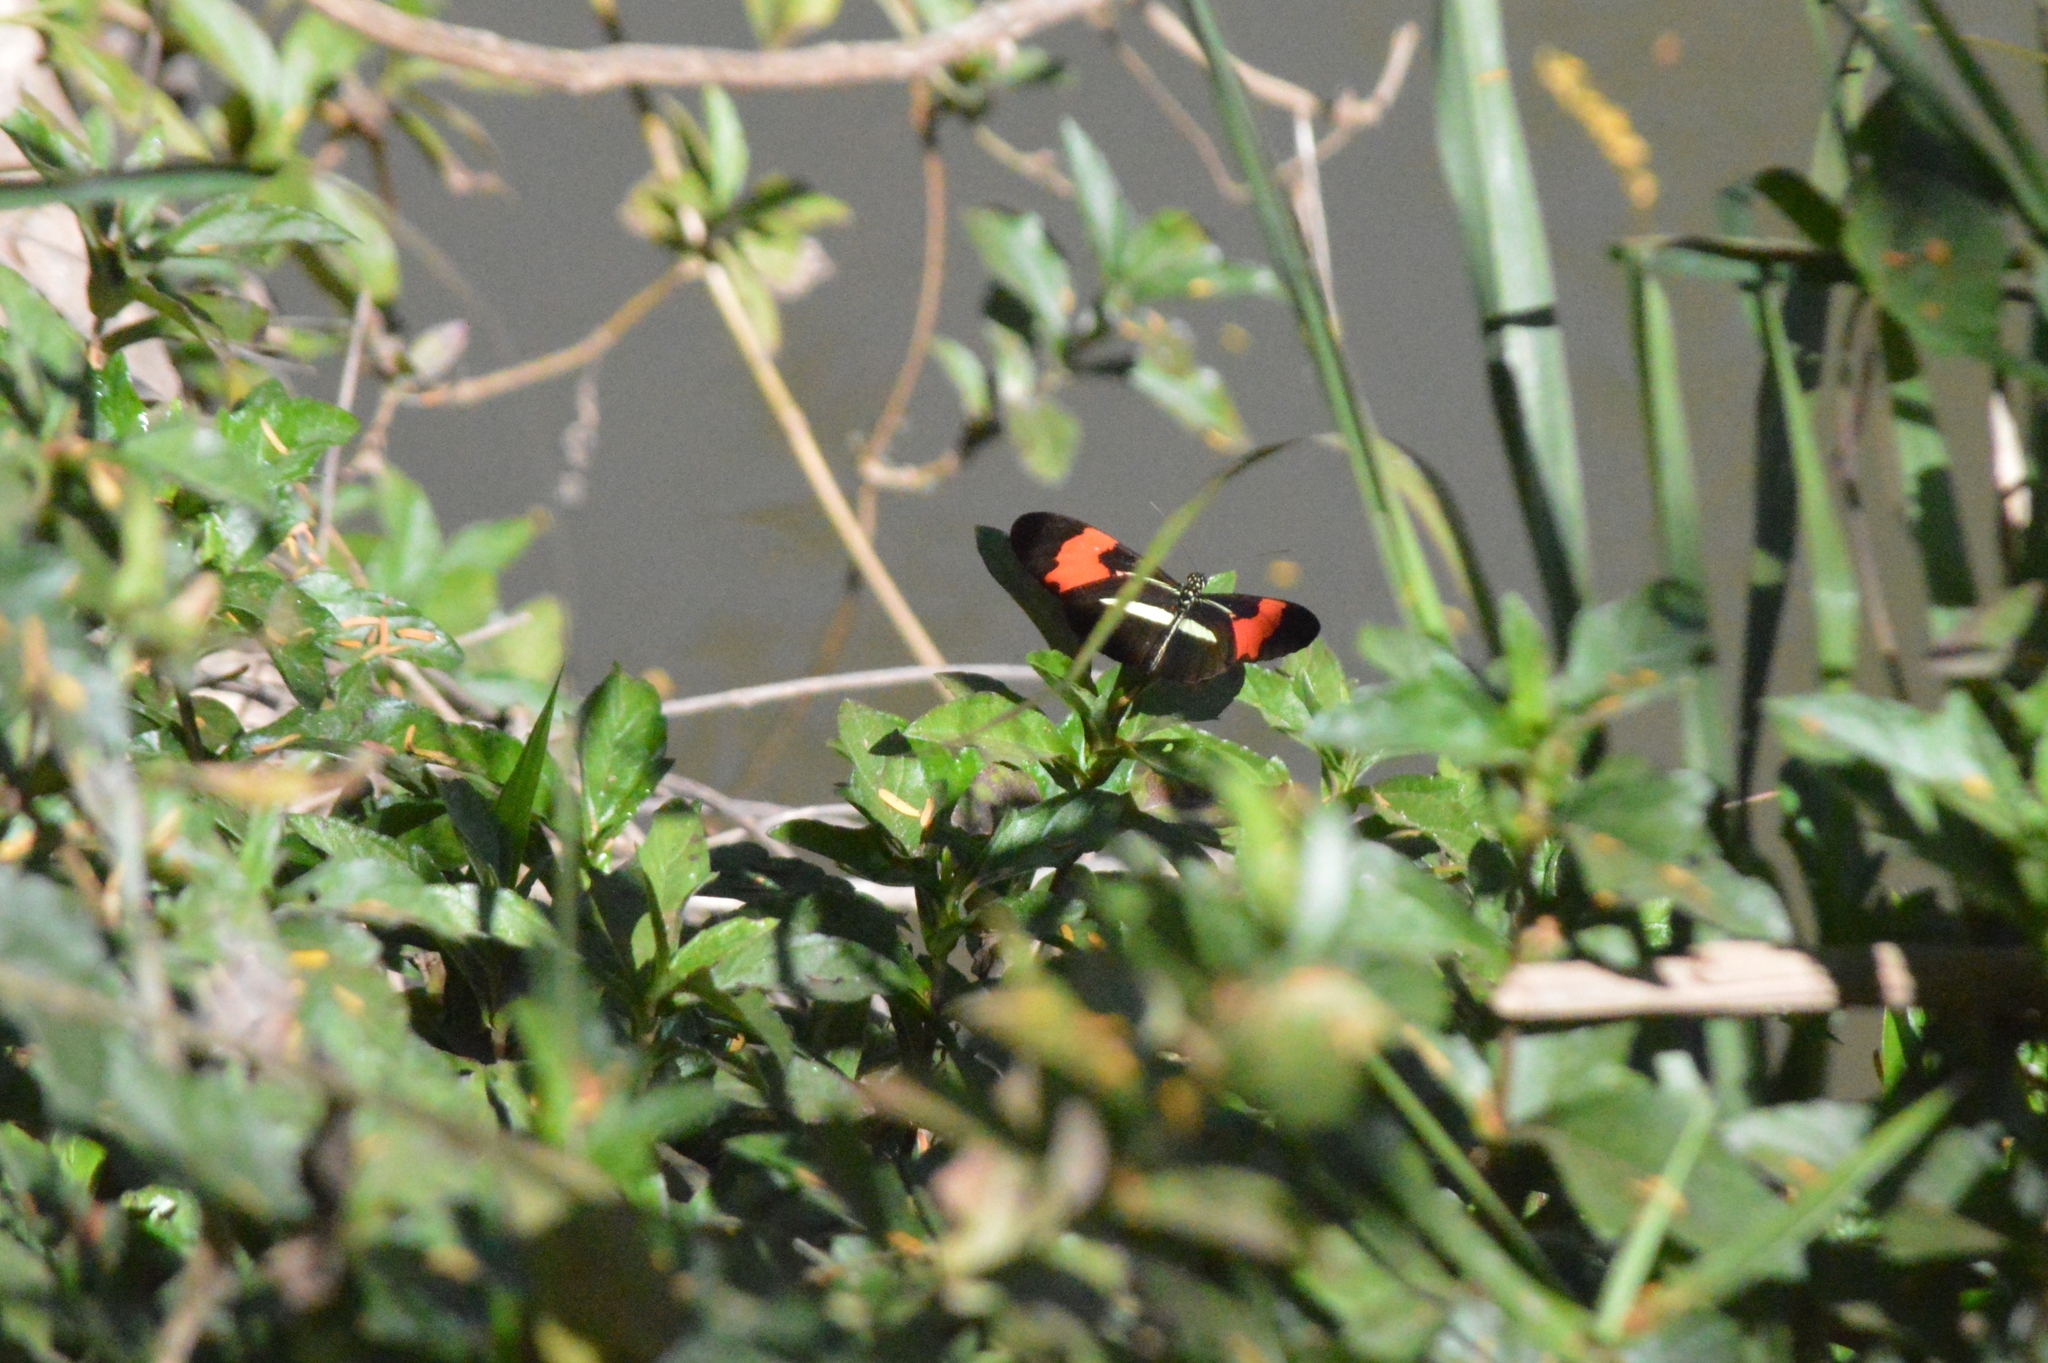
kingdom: Animalia
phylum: Arthropoda
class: Insecta
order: Lepidoptera
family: Nymphalidae
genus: Heliconius
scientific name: Heliconius erato
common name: Common patch longwing
